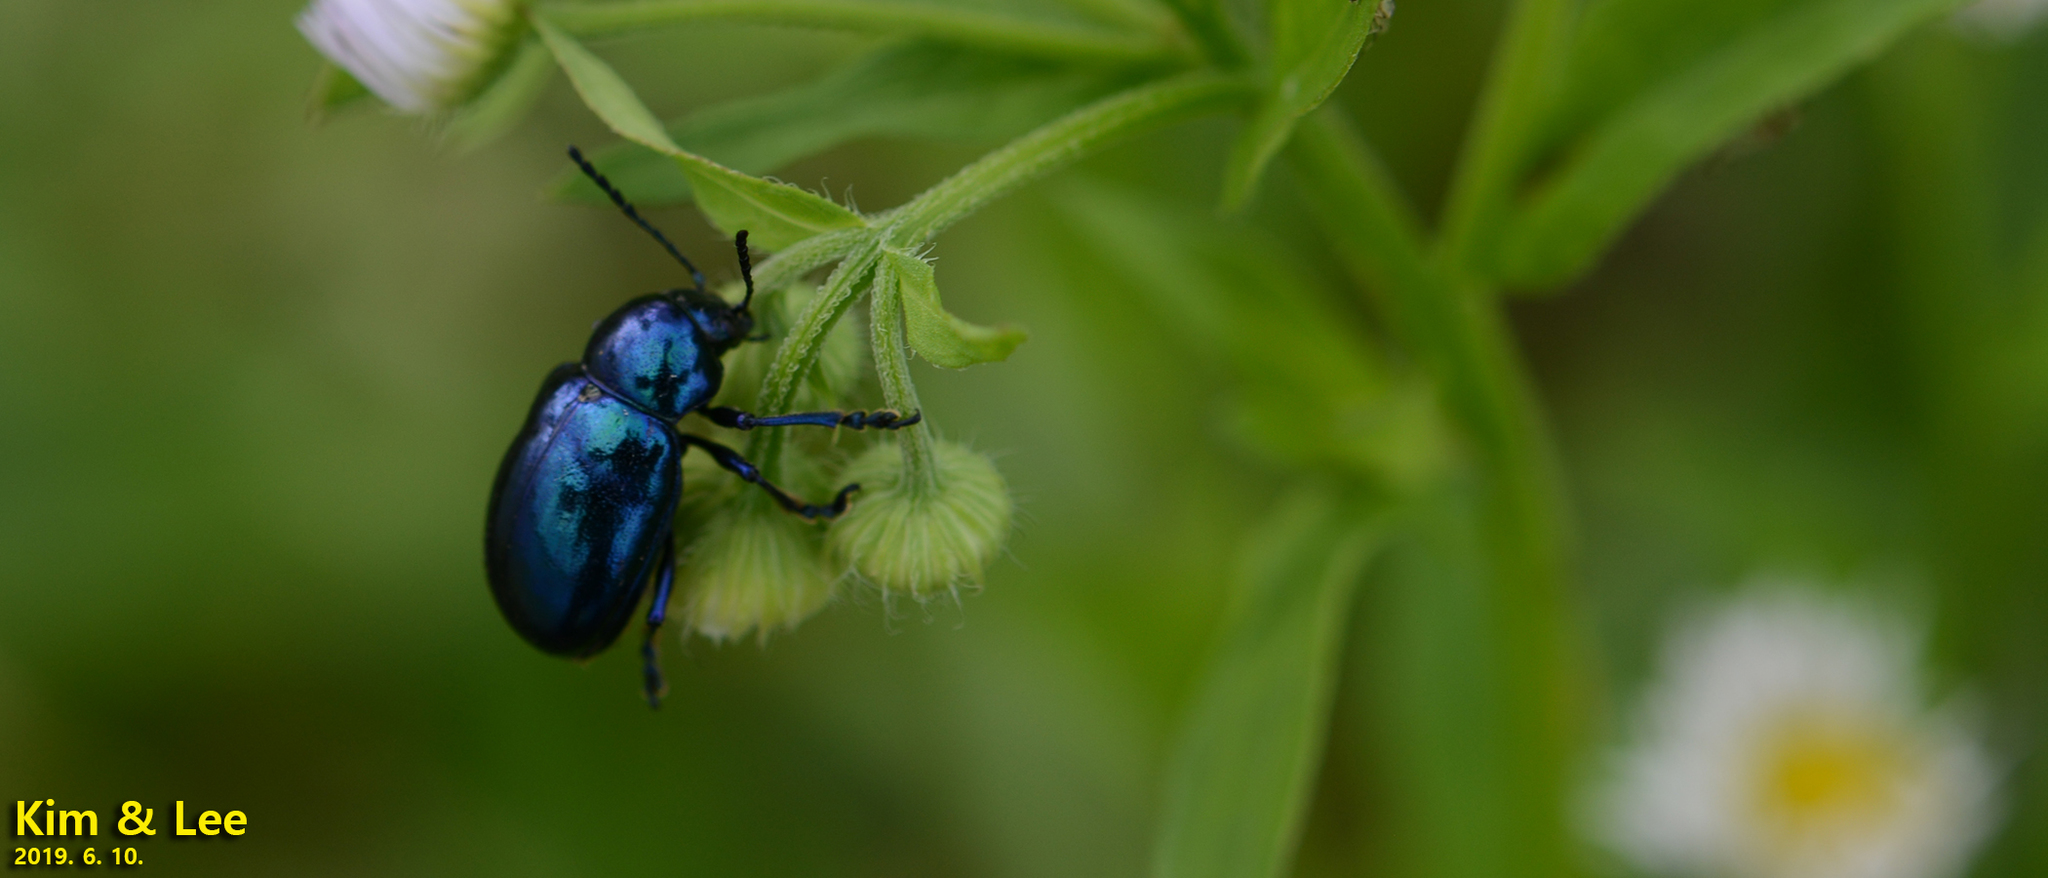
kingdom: Animalia
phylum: Arthropoda
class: Insecta
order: Coleoptera
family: Chrysomelidae
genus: Chrysochus
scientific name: Chrysochus chinensis
